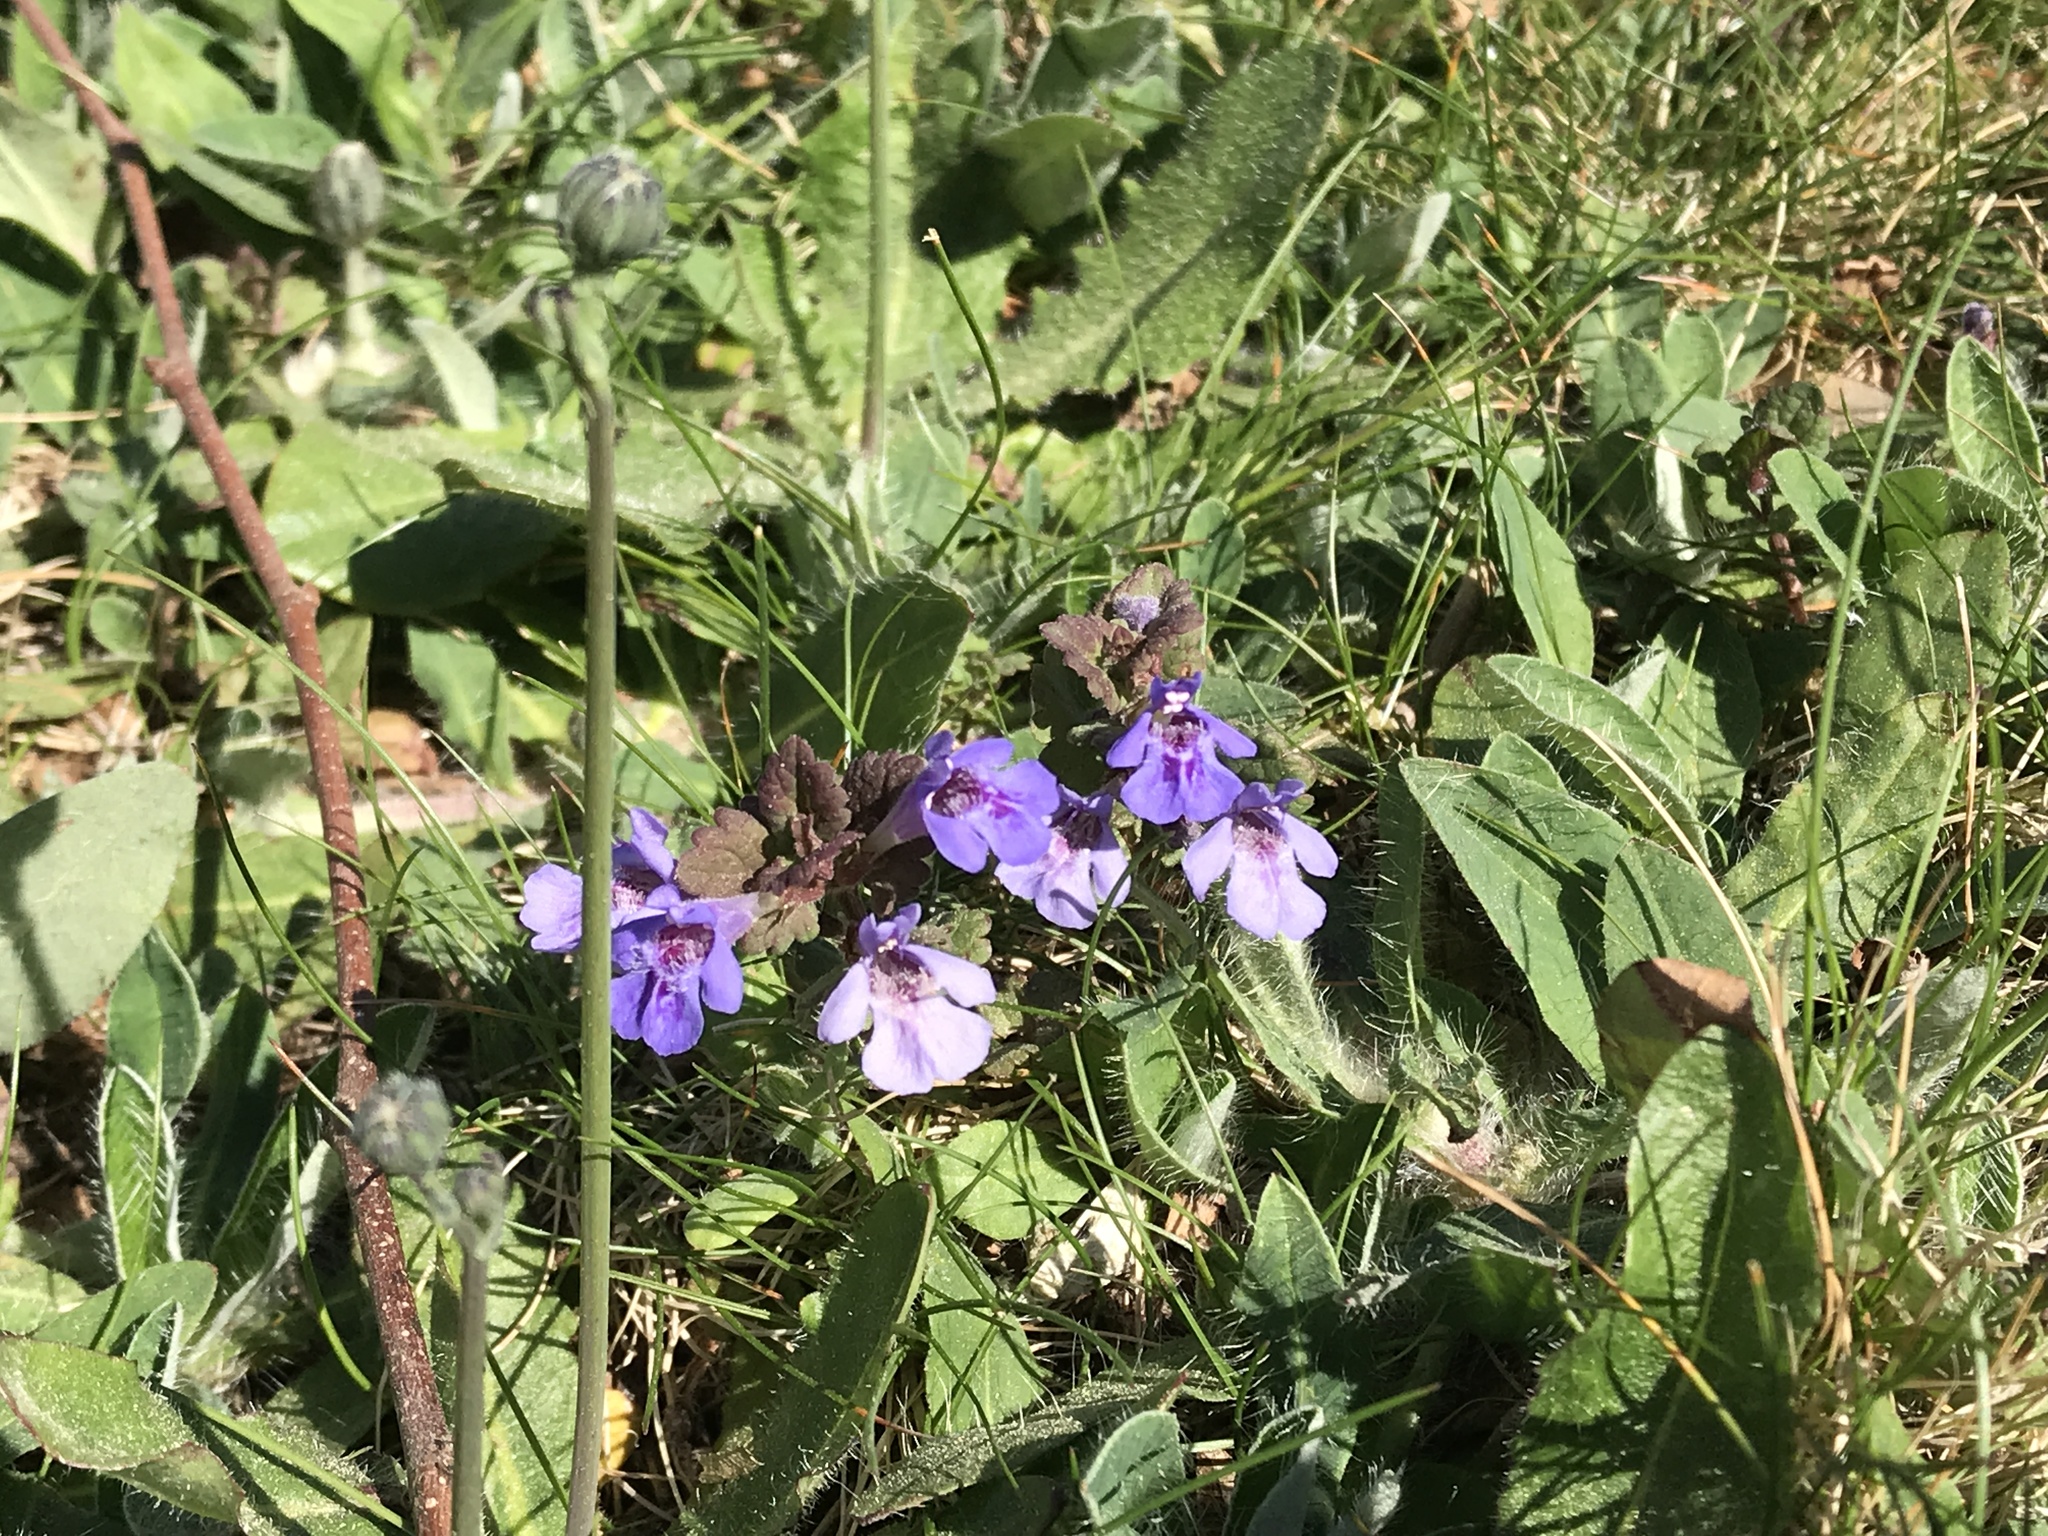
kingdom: Plantae
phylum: Tracheophyta
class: Magnoliopsida
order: Lamiales
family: Lamiaceae
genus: Glechoma
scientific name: Glechoma hederacea
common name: Ground ivy
